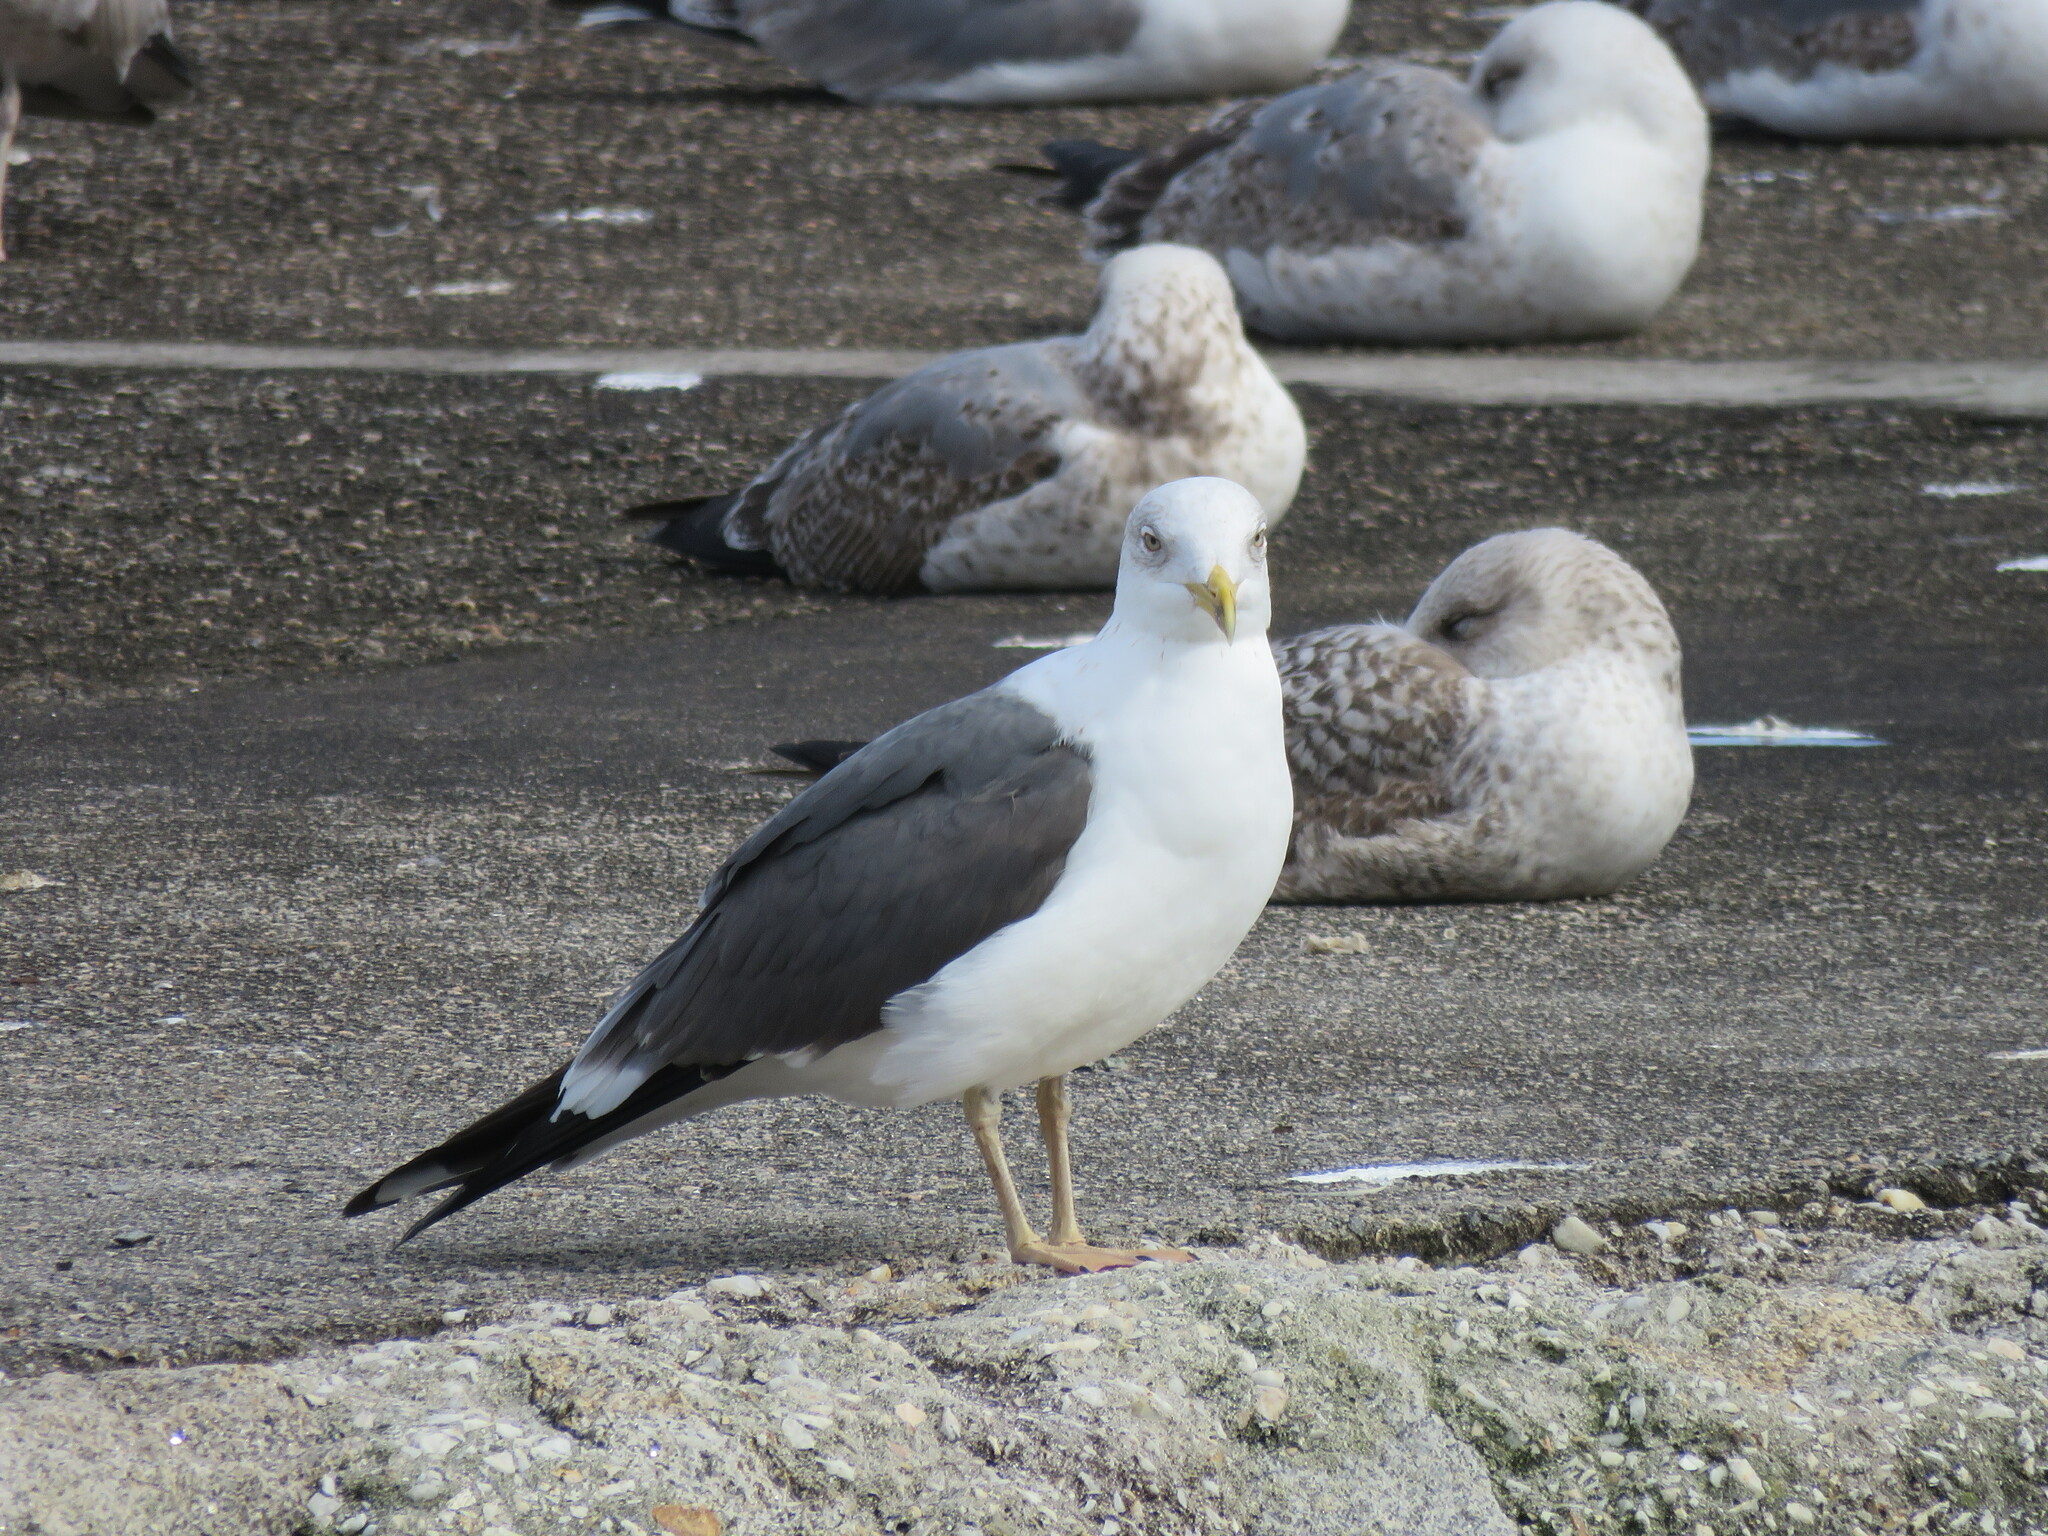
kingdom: Animalia
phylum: Chordata
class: Aves
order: Charadriiformes
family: Laridae
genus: Larus
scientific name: Larus fuscus
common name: Lesser black-backed gull
